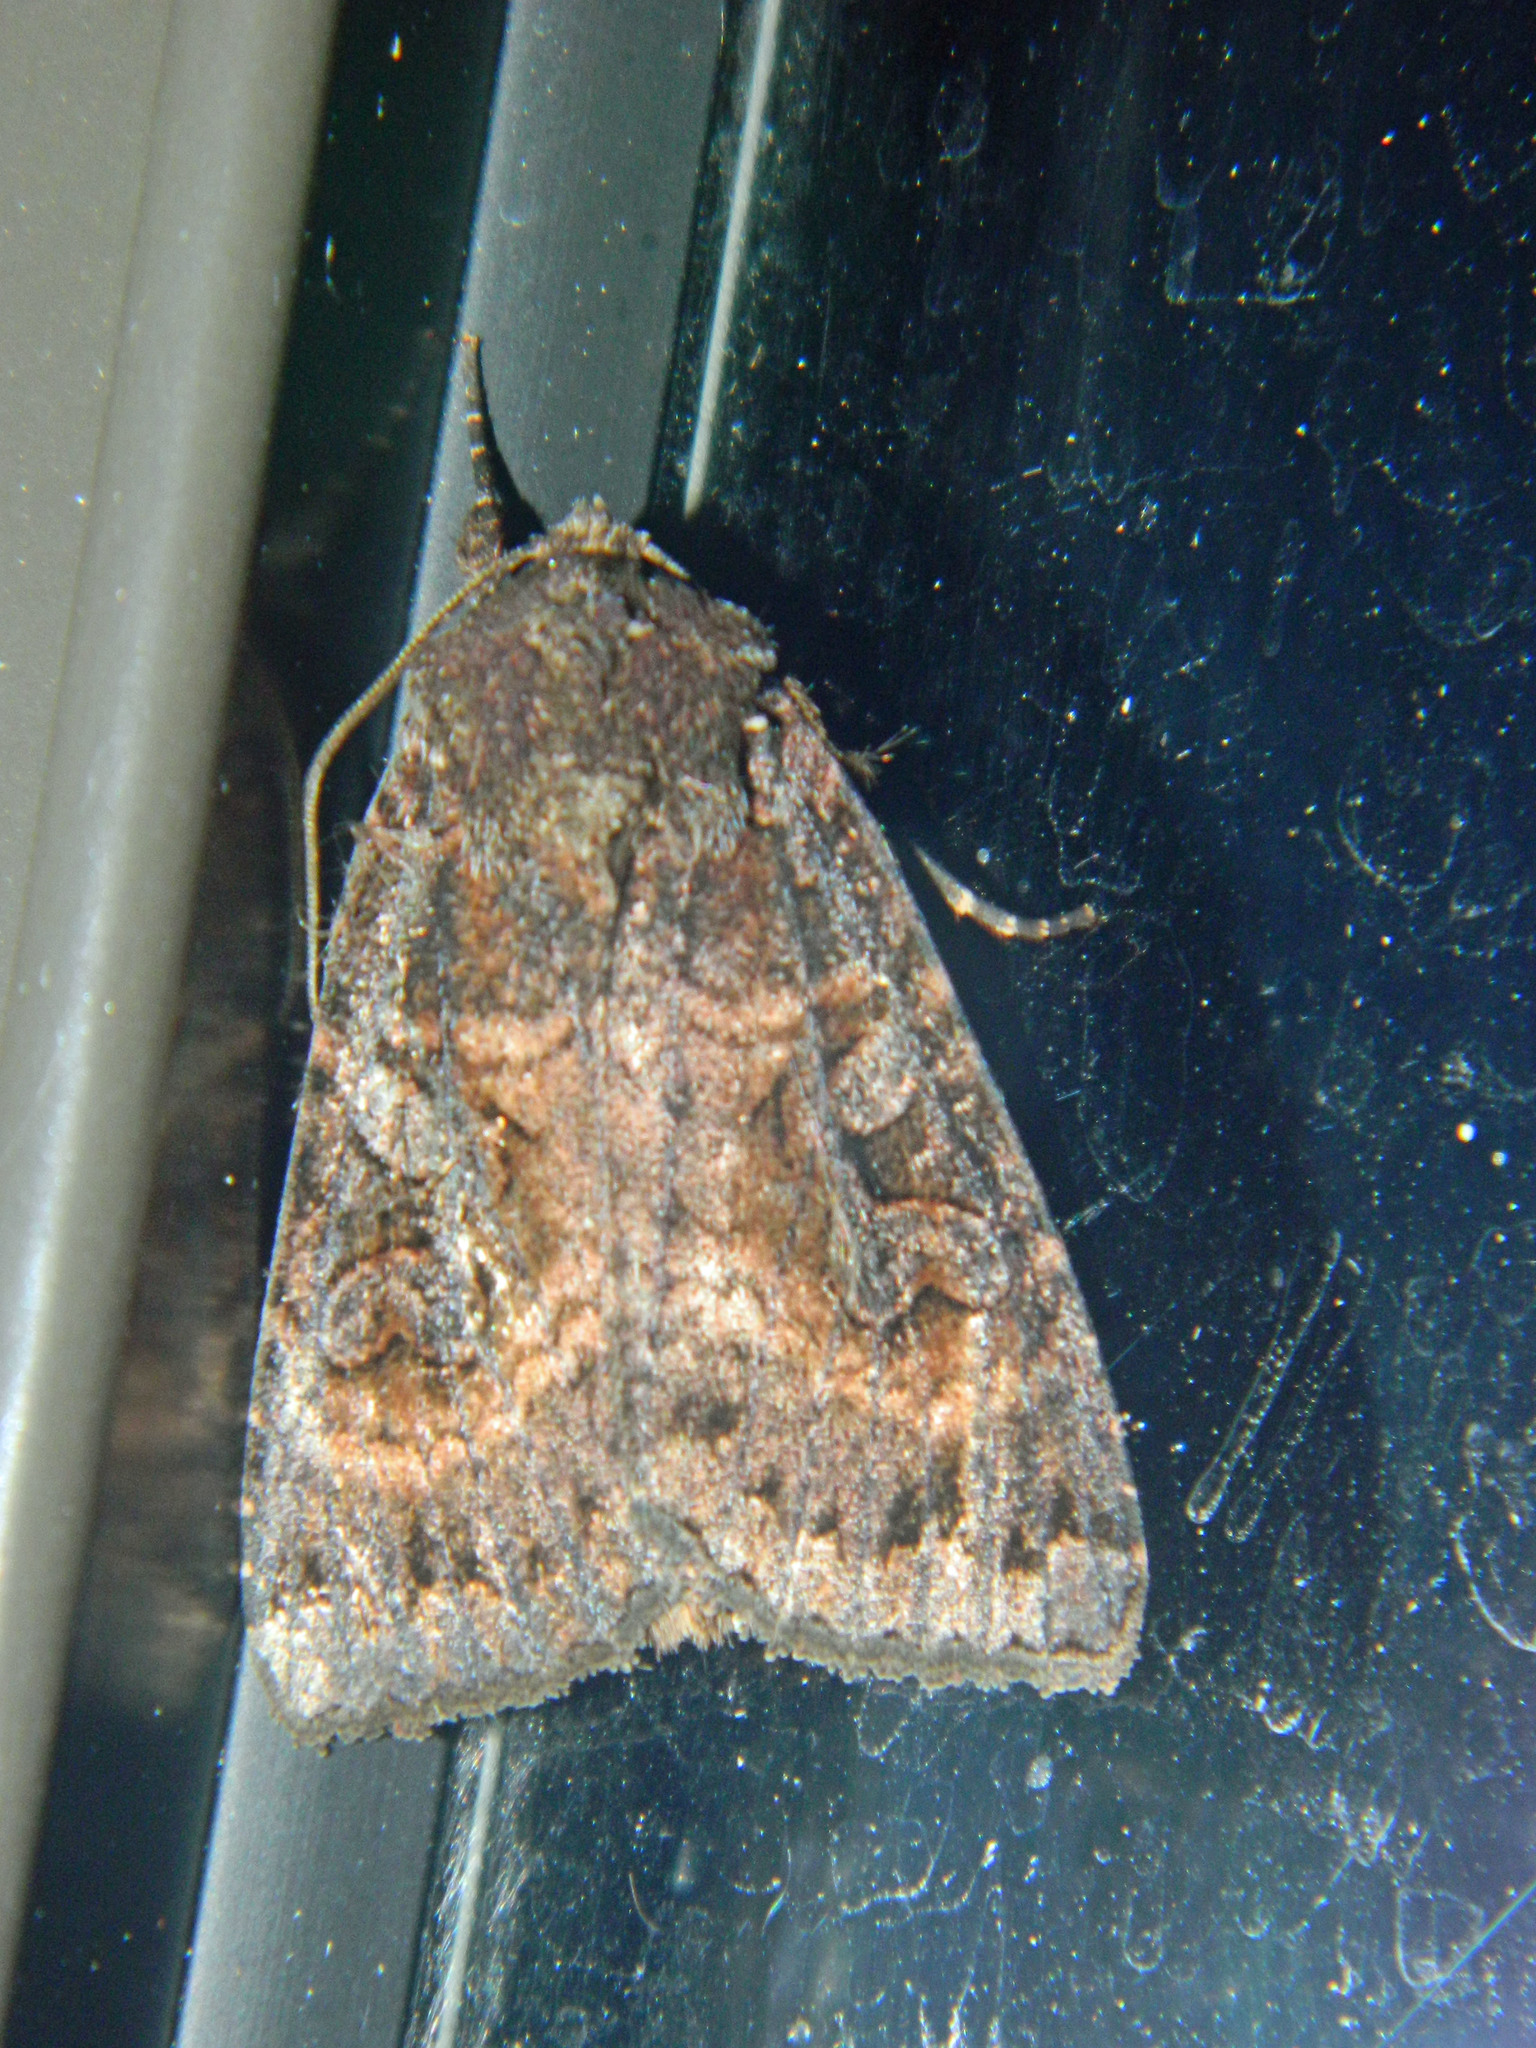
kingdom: Animalia
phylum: Arthropoda
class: Insecta
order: Lepidoptera
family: Noctuidae
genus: Eurois
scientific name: Eurois astricta
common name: Great brown dart
